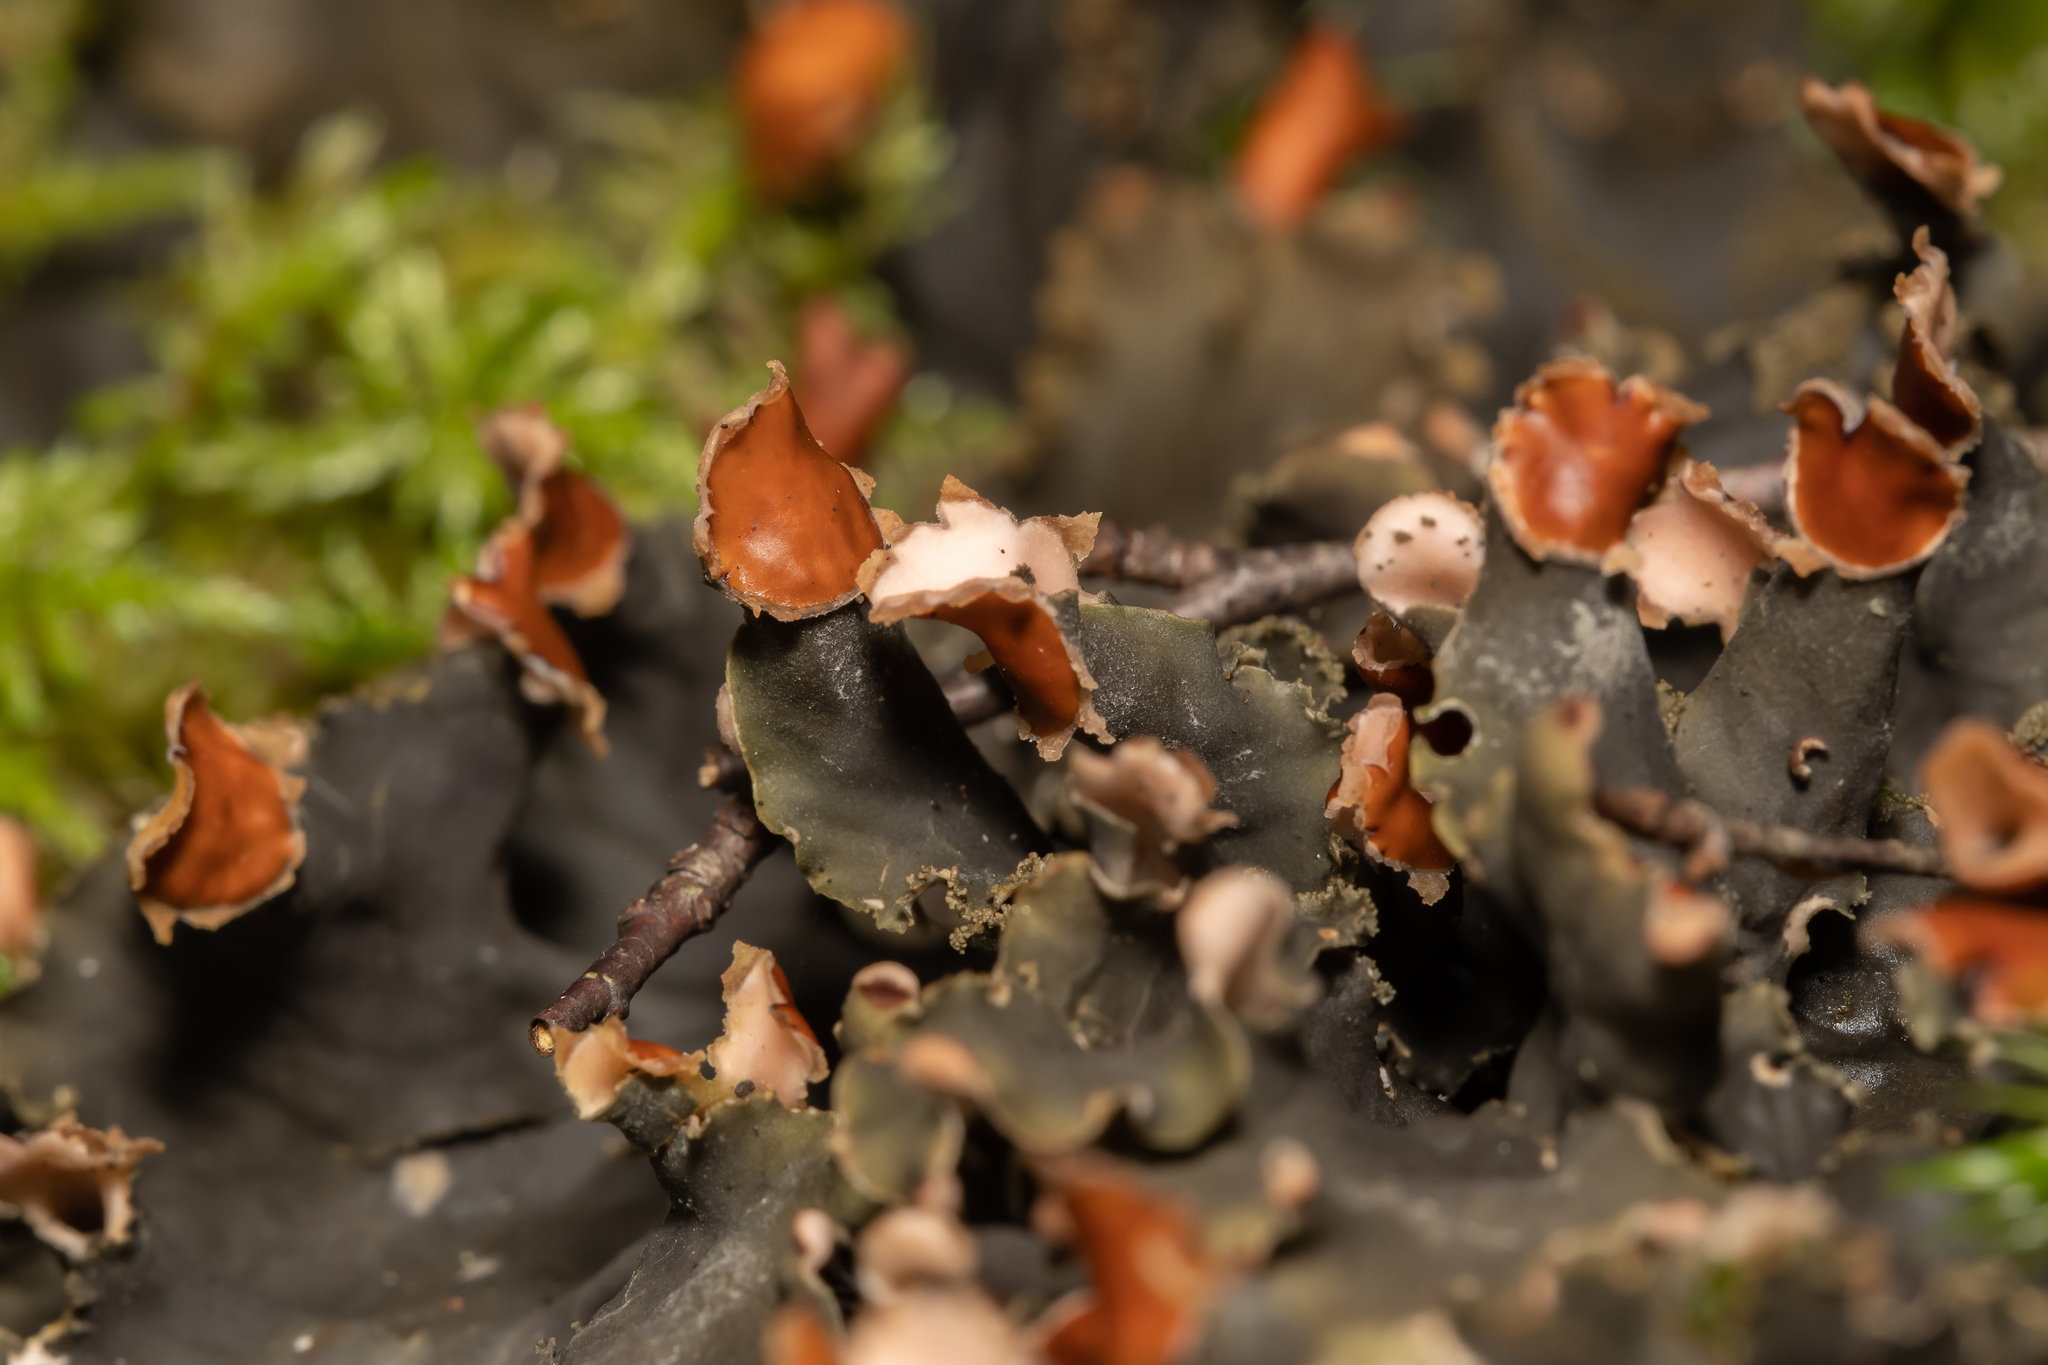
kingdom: Fungi
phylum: Ascomycota
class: Lecanoromycetes
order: Peltigerales
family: Peltigeraceae
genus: Peltigera
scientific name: Peltigera praetextata
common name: Scaly dog-lichen
